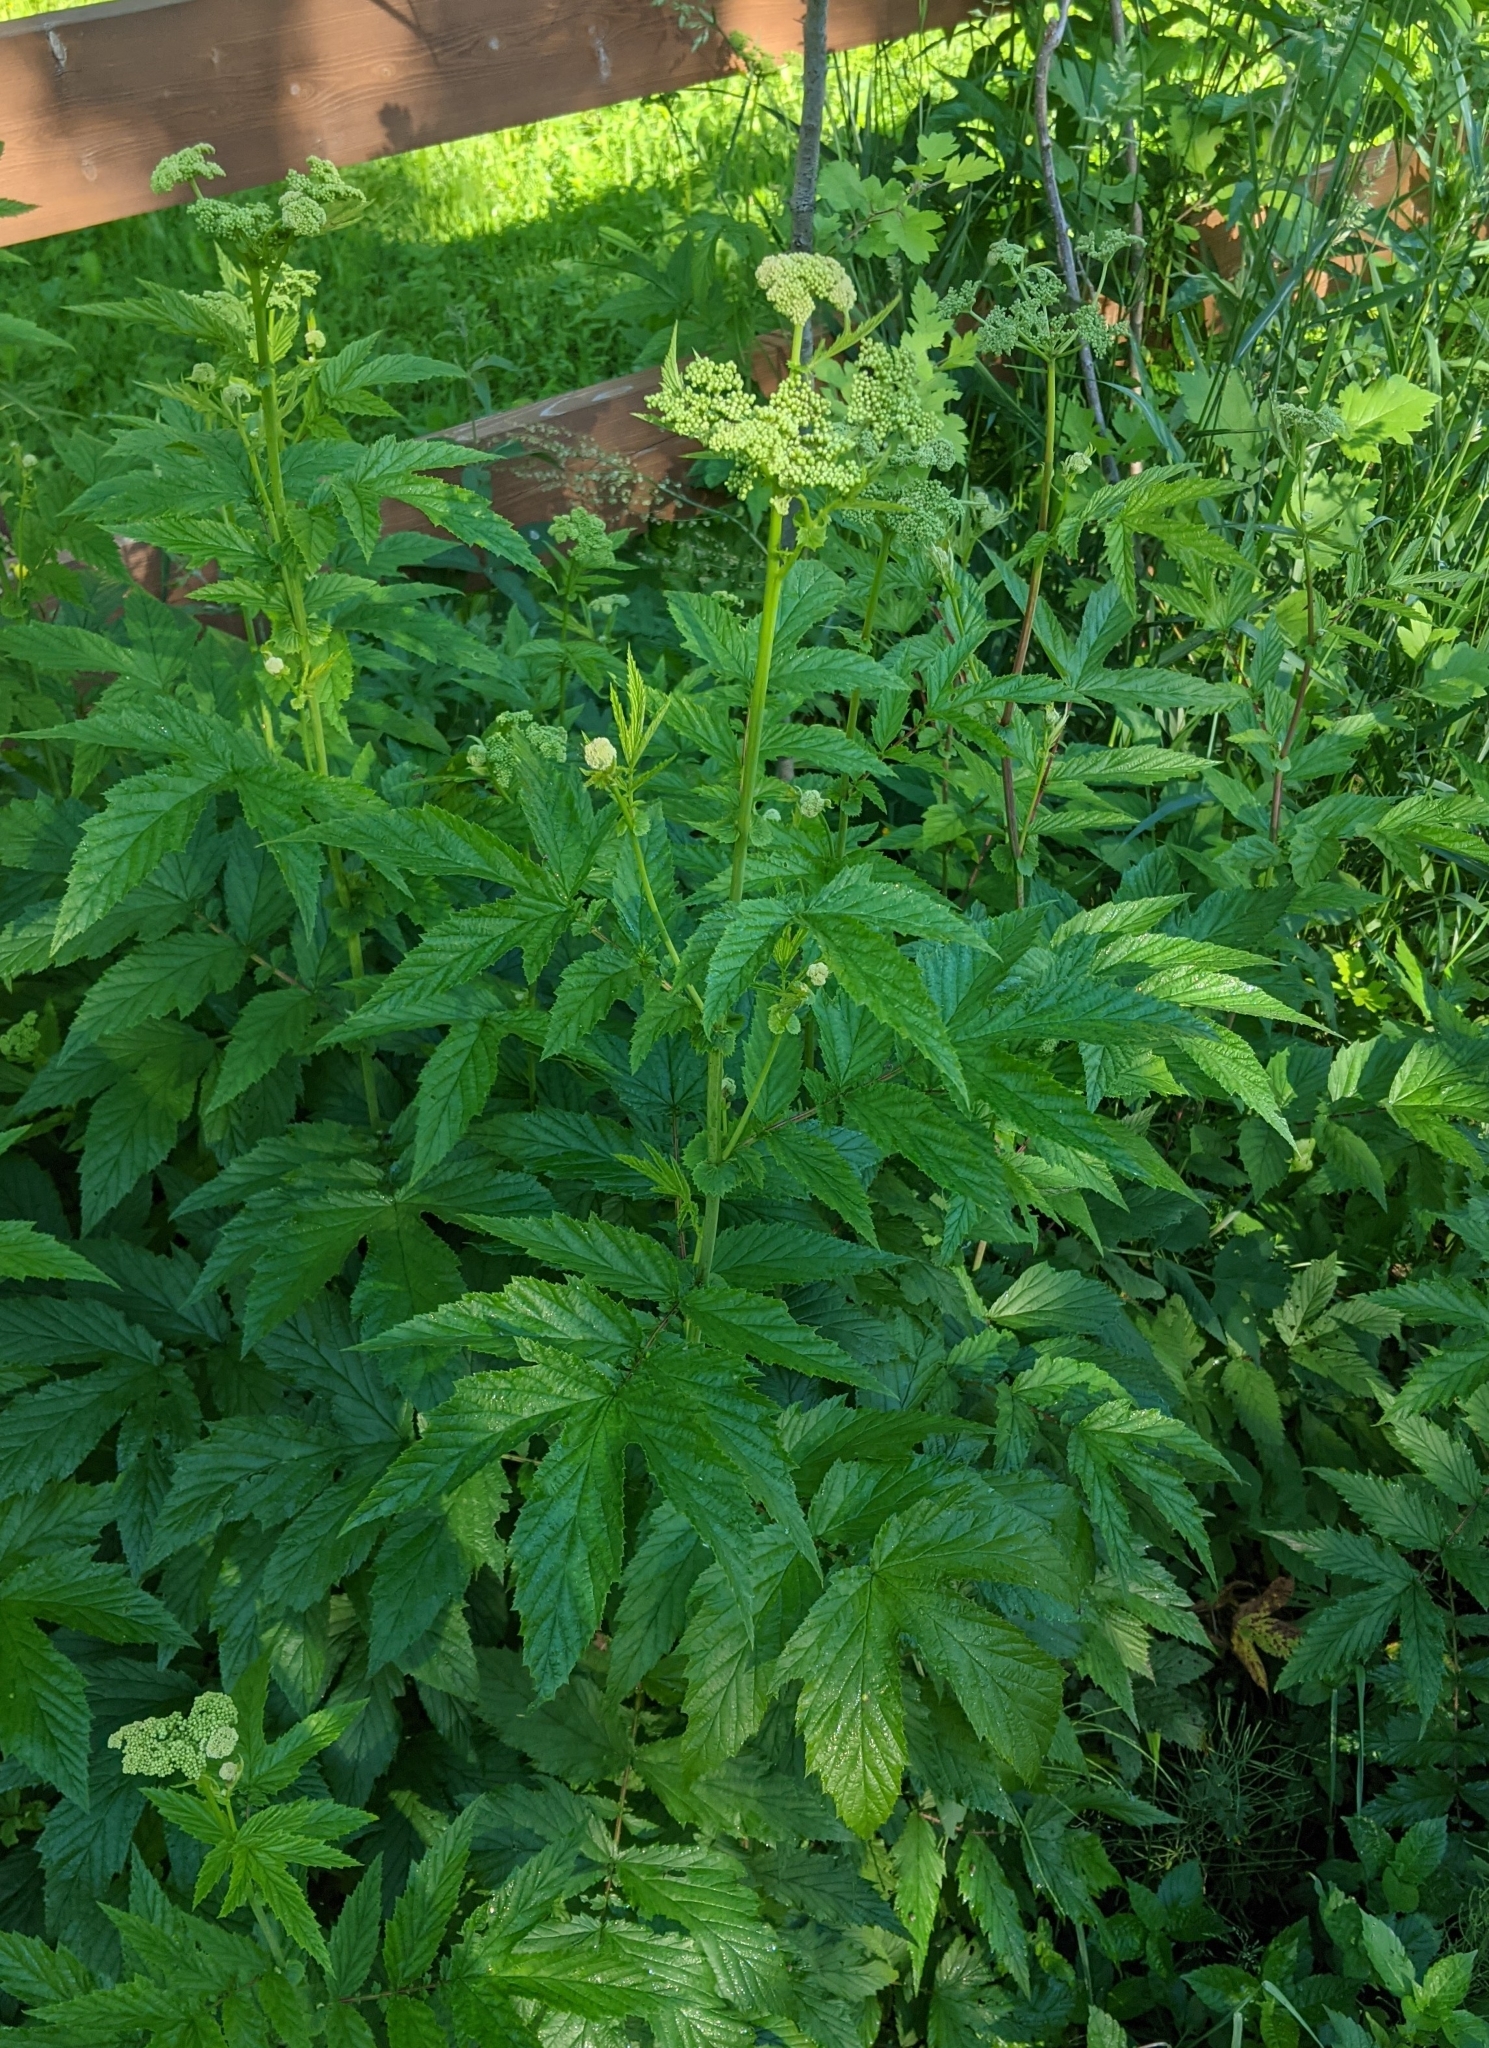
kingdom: Plantae
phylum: Tracheophyta
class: Magnoliopsida
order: Rosales
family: Rosaceae
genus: Filipendula
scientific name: Filipendula ulmaria
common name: Meadowsweet
